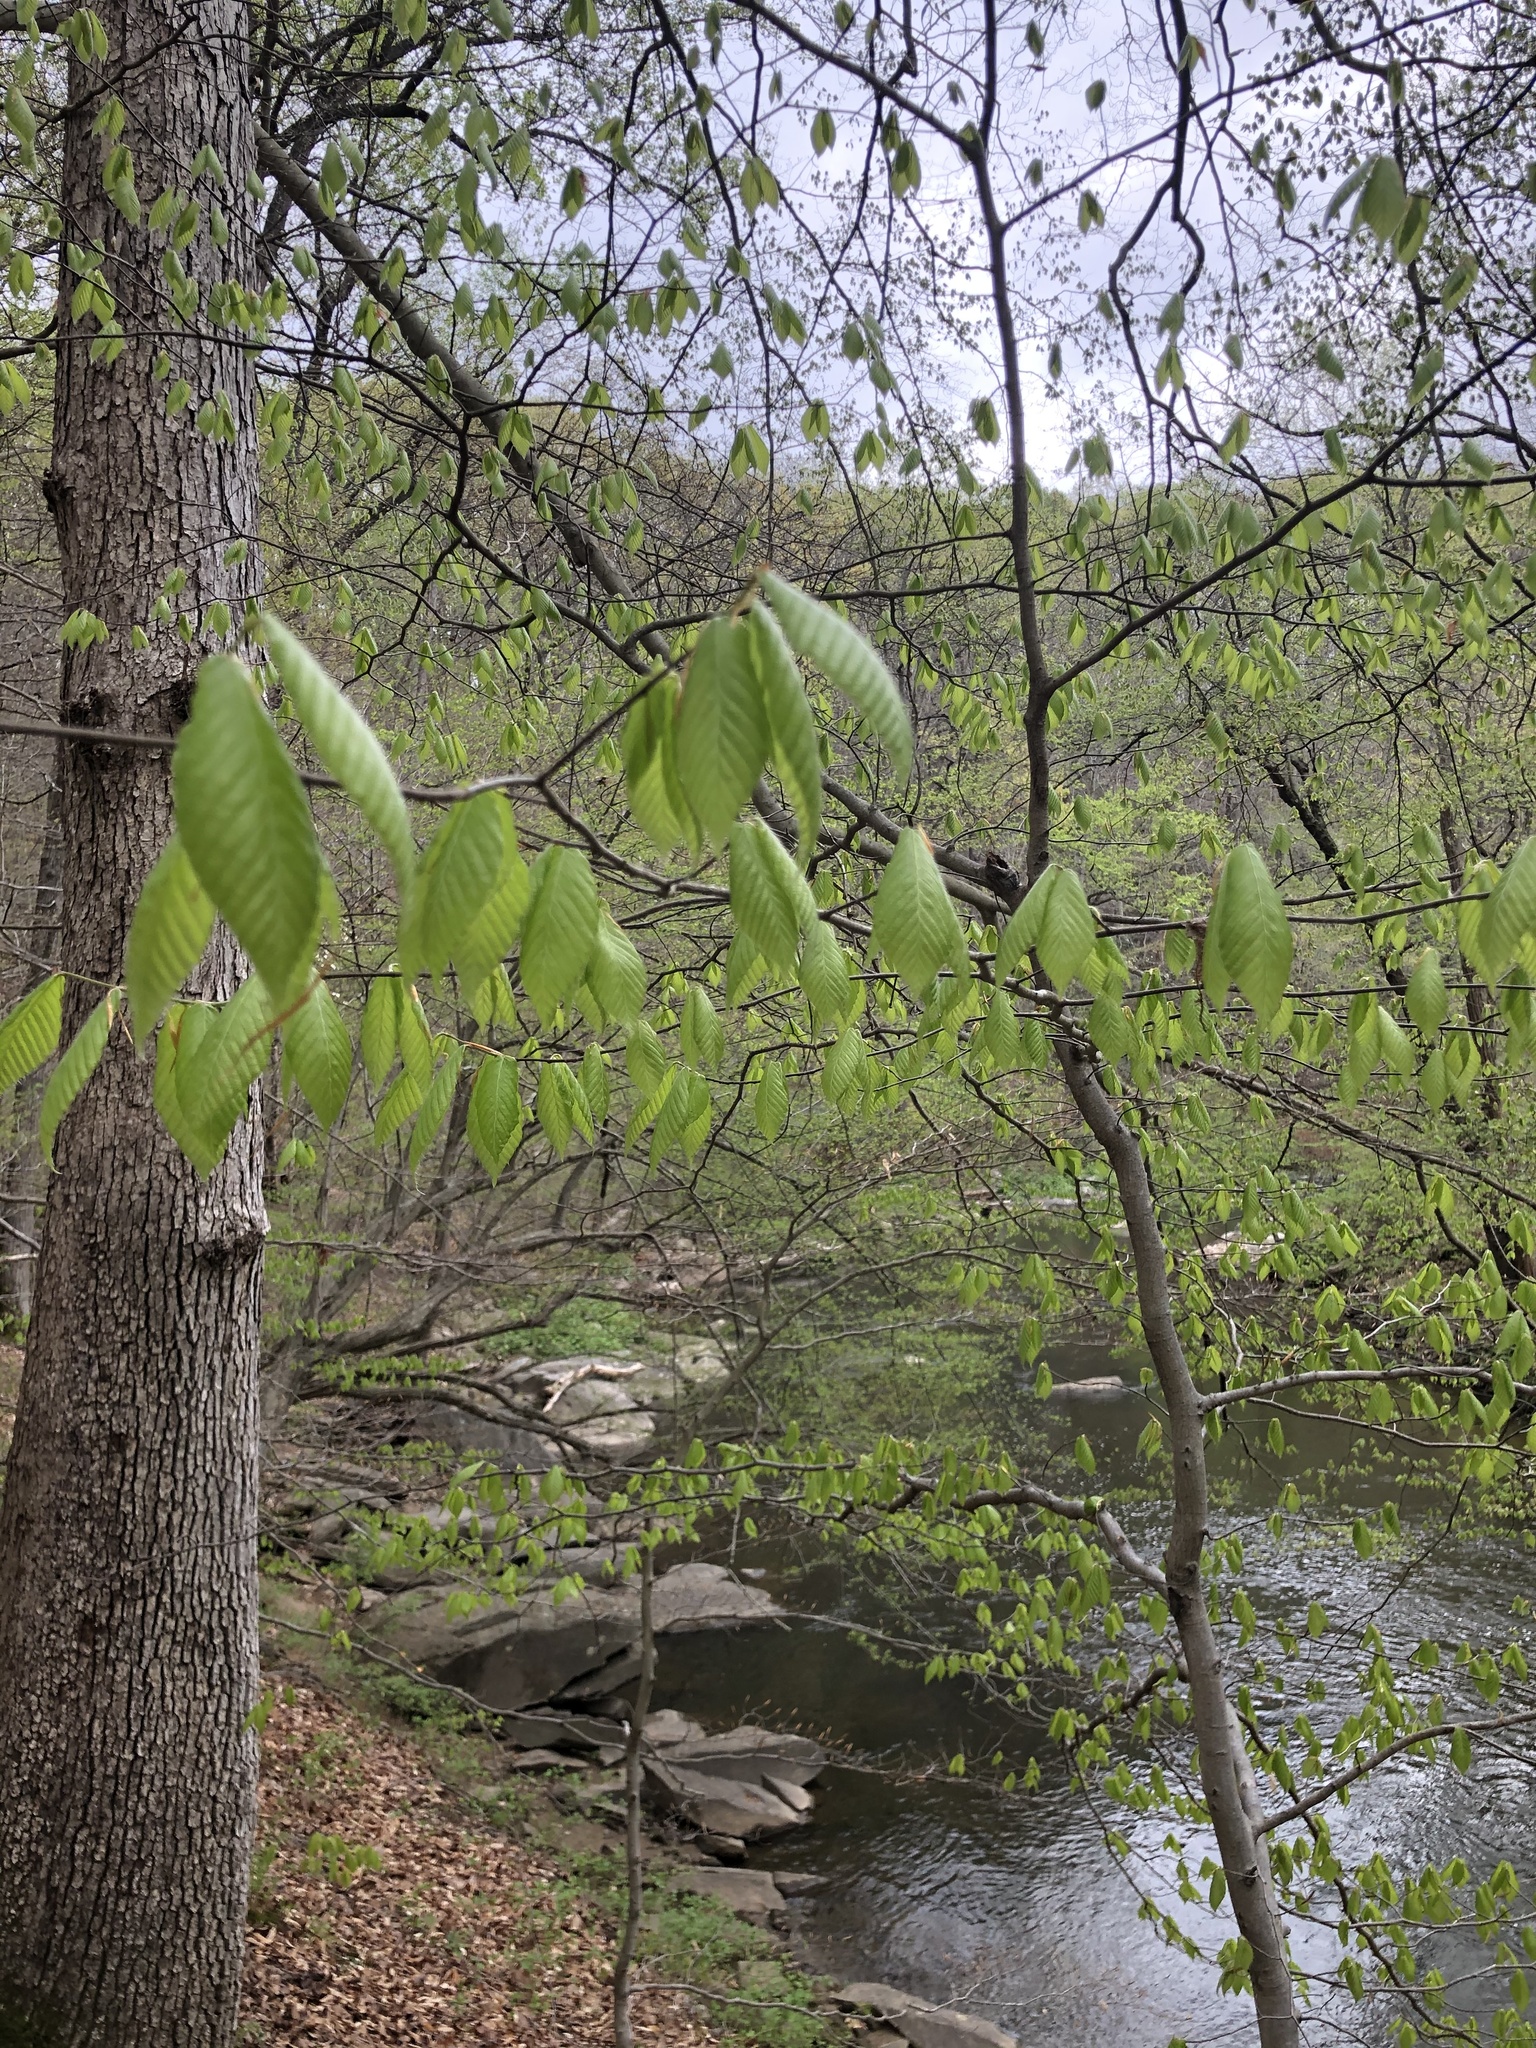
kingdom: Plantae
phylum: Tracheophyta
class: Magnoliopsida
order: Fagales
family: Fagaceae
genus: Fagus
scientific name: Fagus grandifolia
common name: American beech
